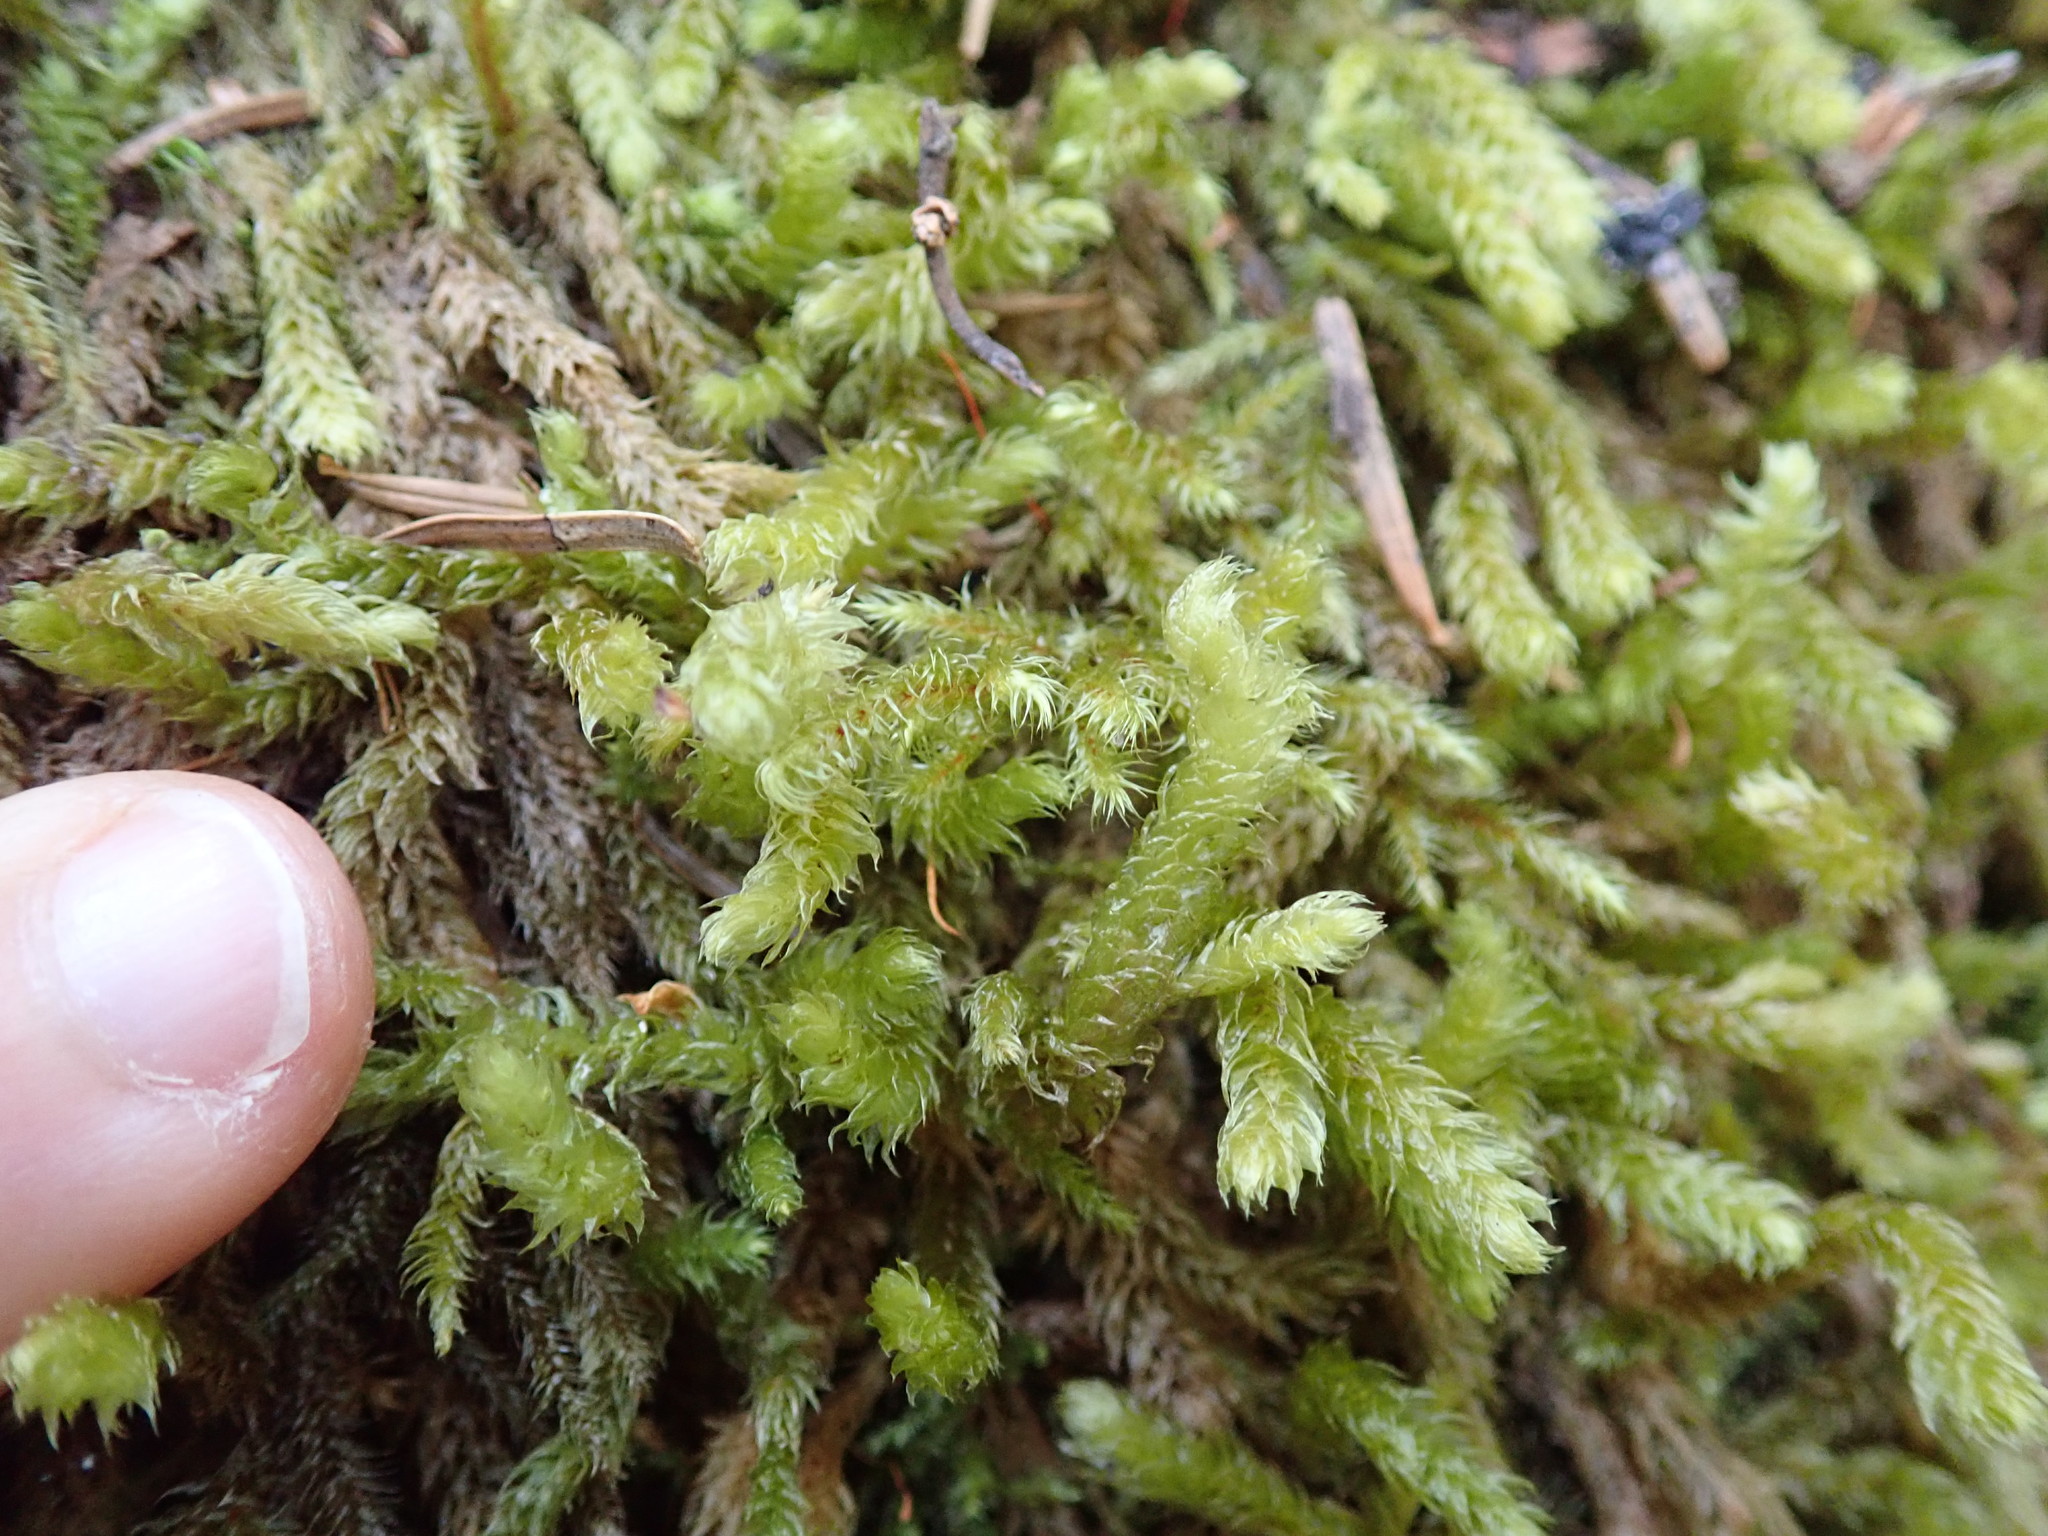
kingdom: Plantae
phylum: Bryophyta
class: Bryopsida
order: Hypnales
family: Hylocomiaceae
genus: Rhytidiopsis
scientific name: Rhytidiopsis robusta
